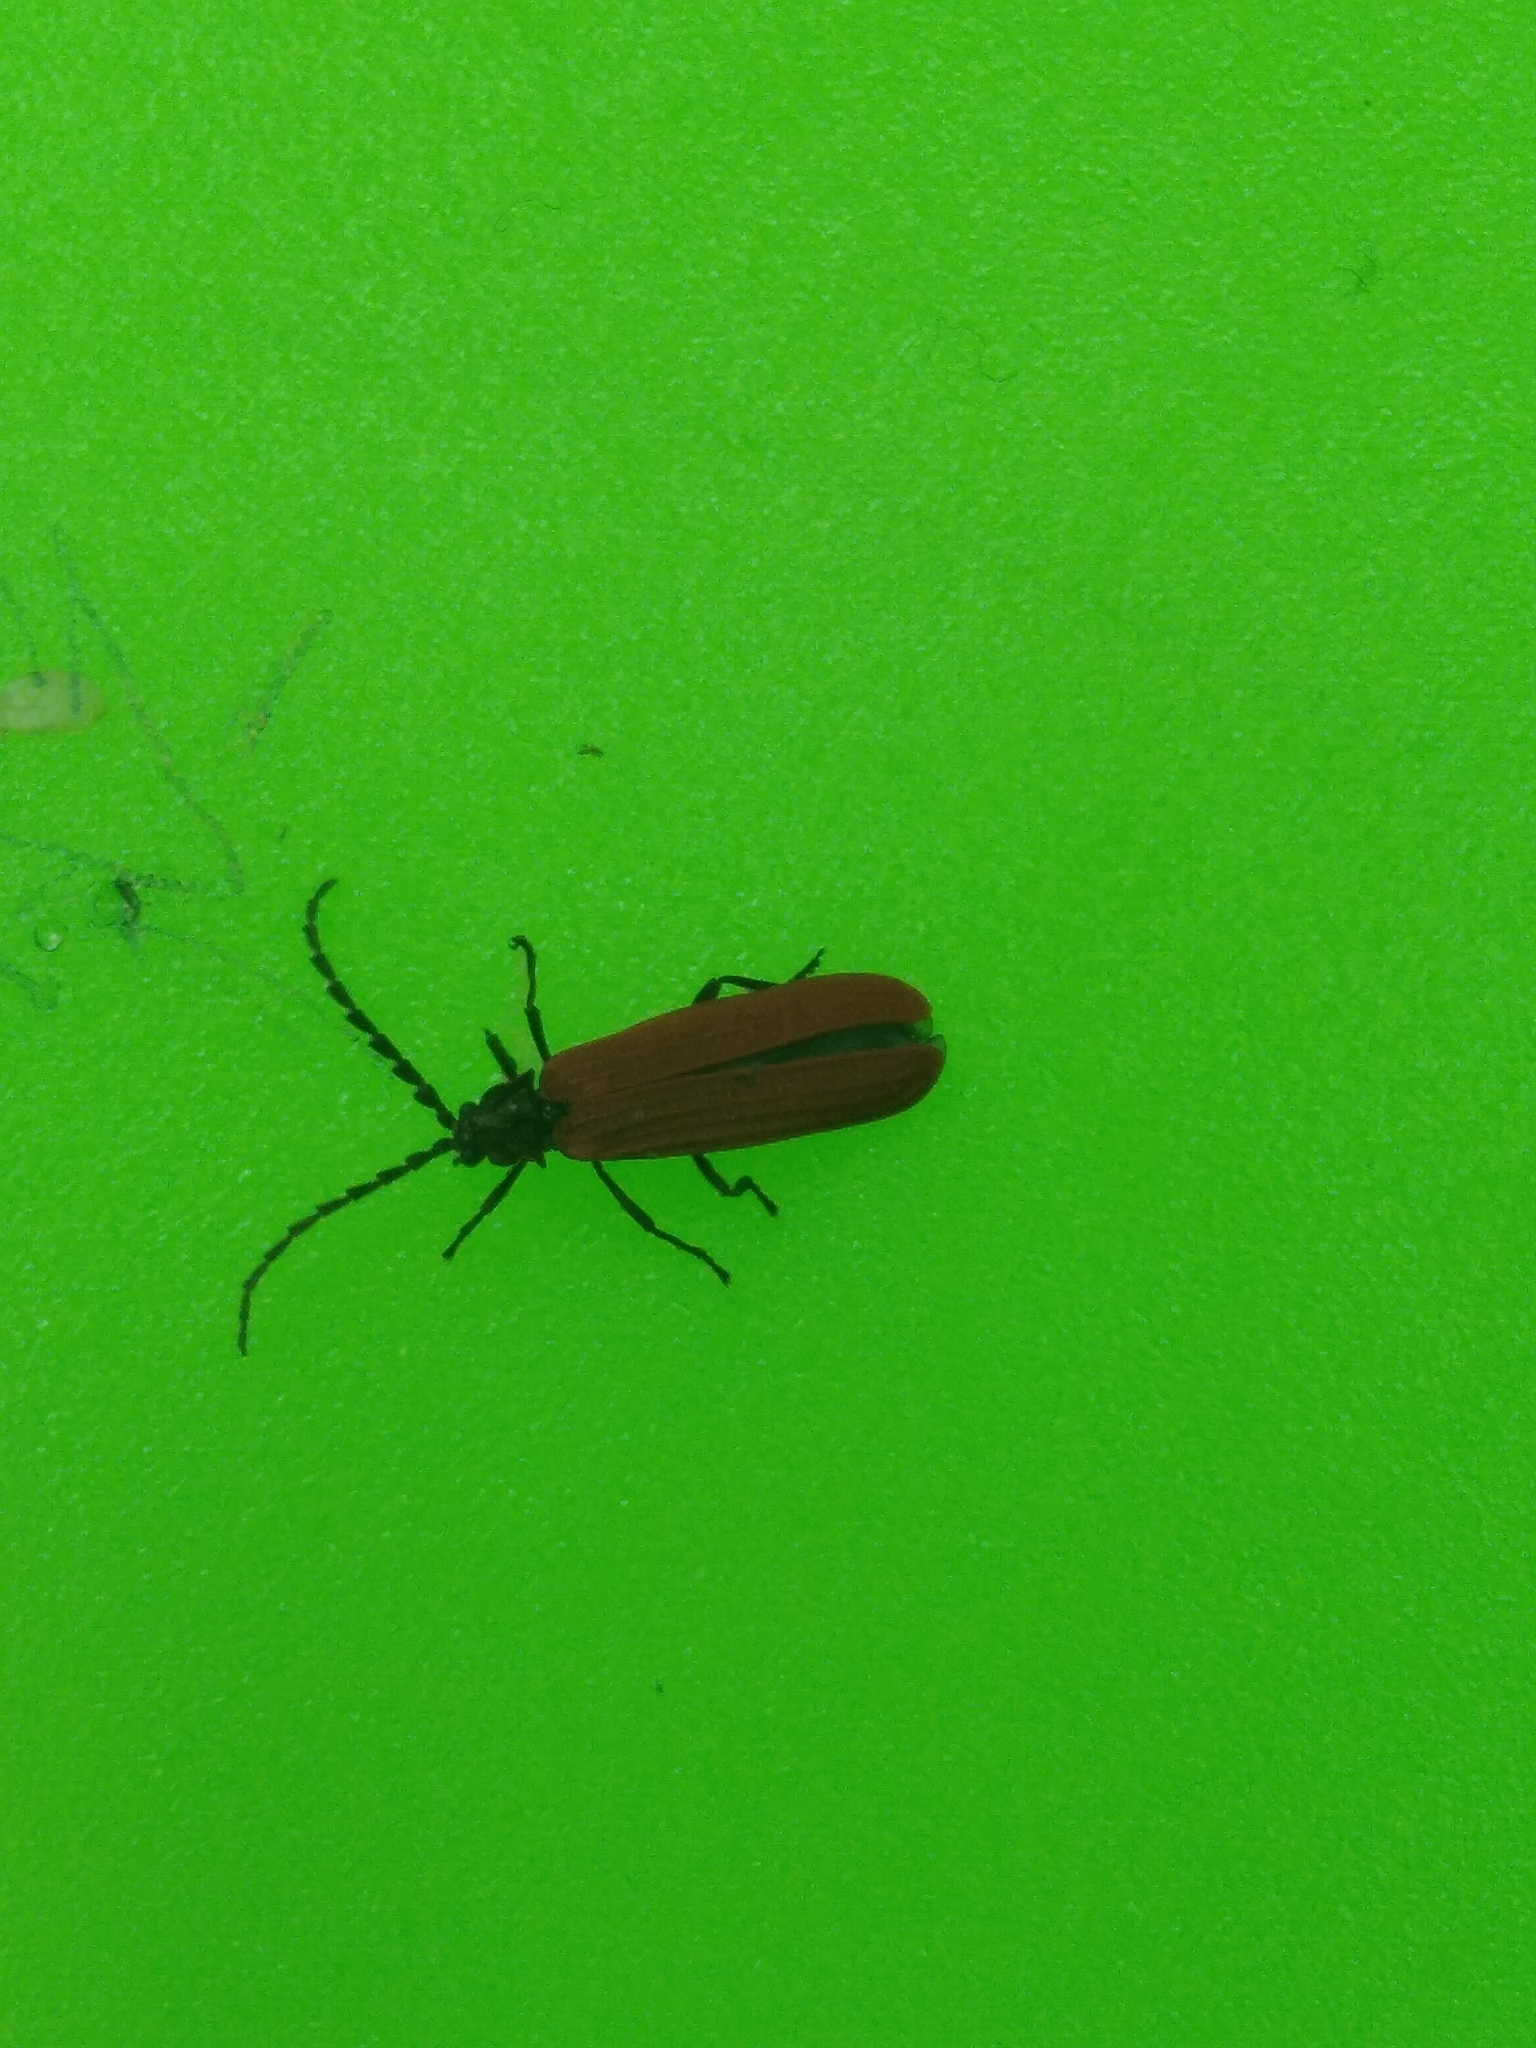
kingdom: Animalia
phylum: Arthropoda
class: Insecta
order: Coleoptera
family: Lycidae
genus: Xylobanellus
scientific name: Xylobanellus erythropterus
